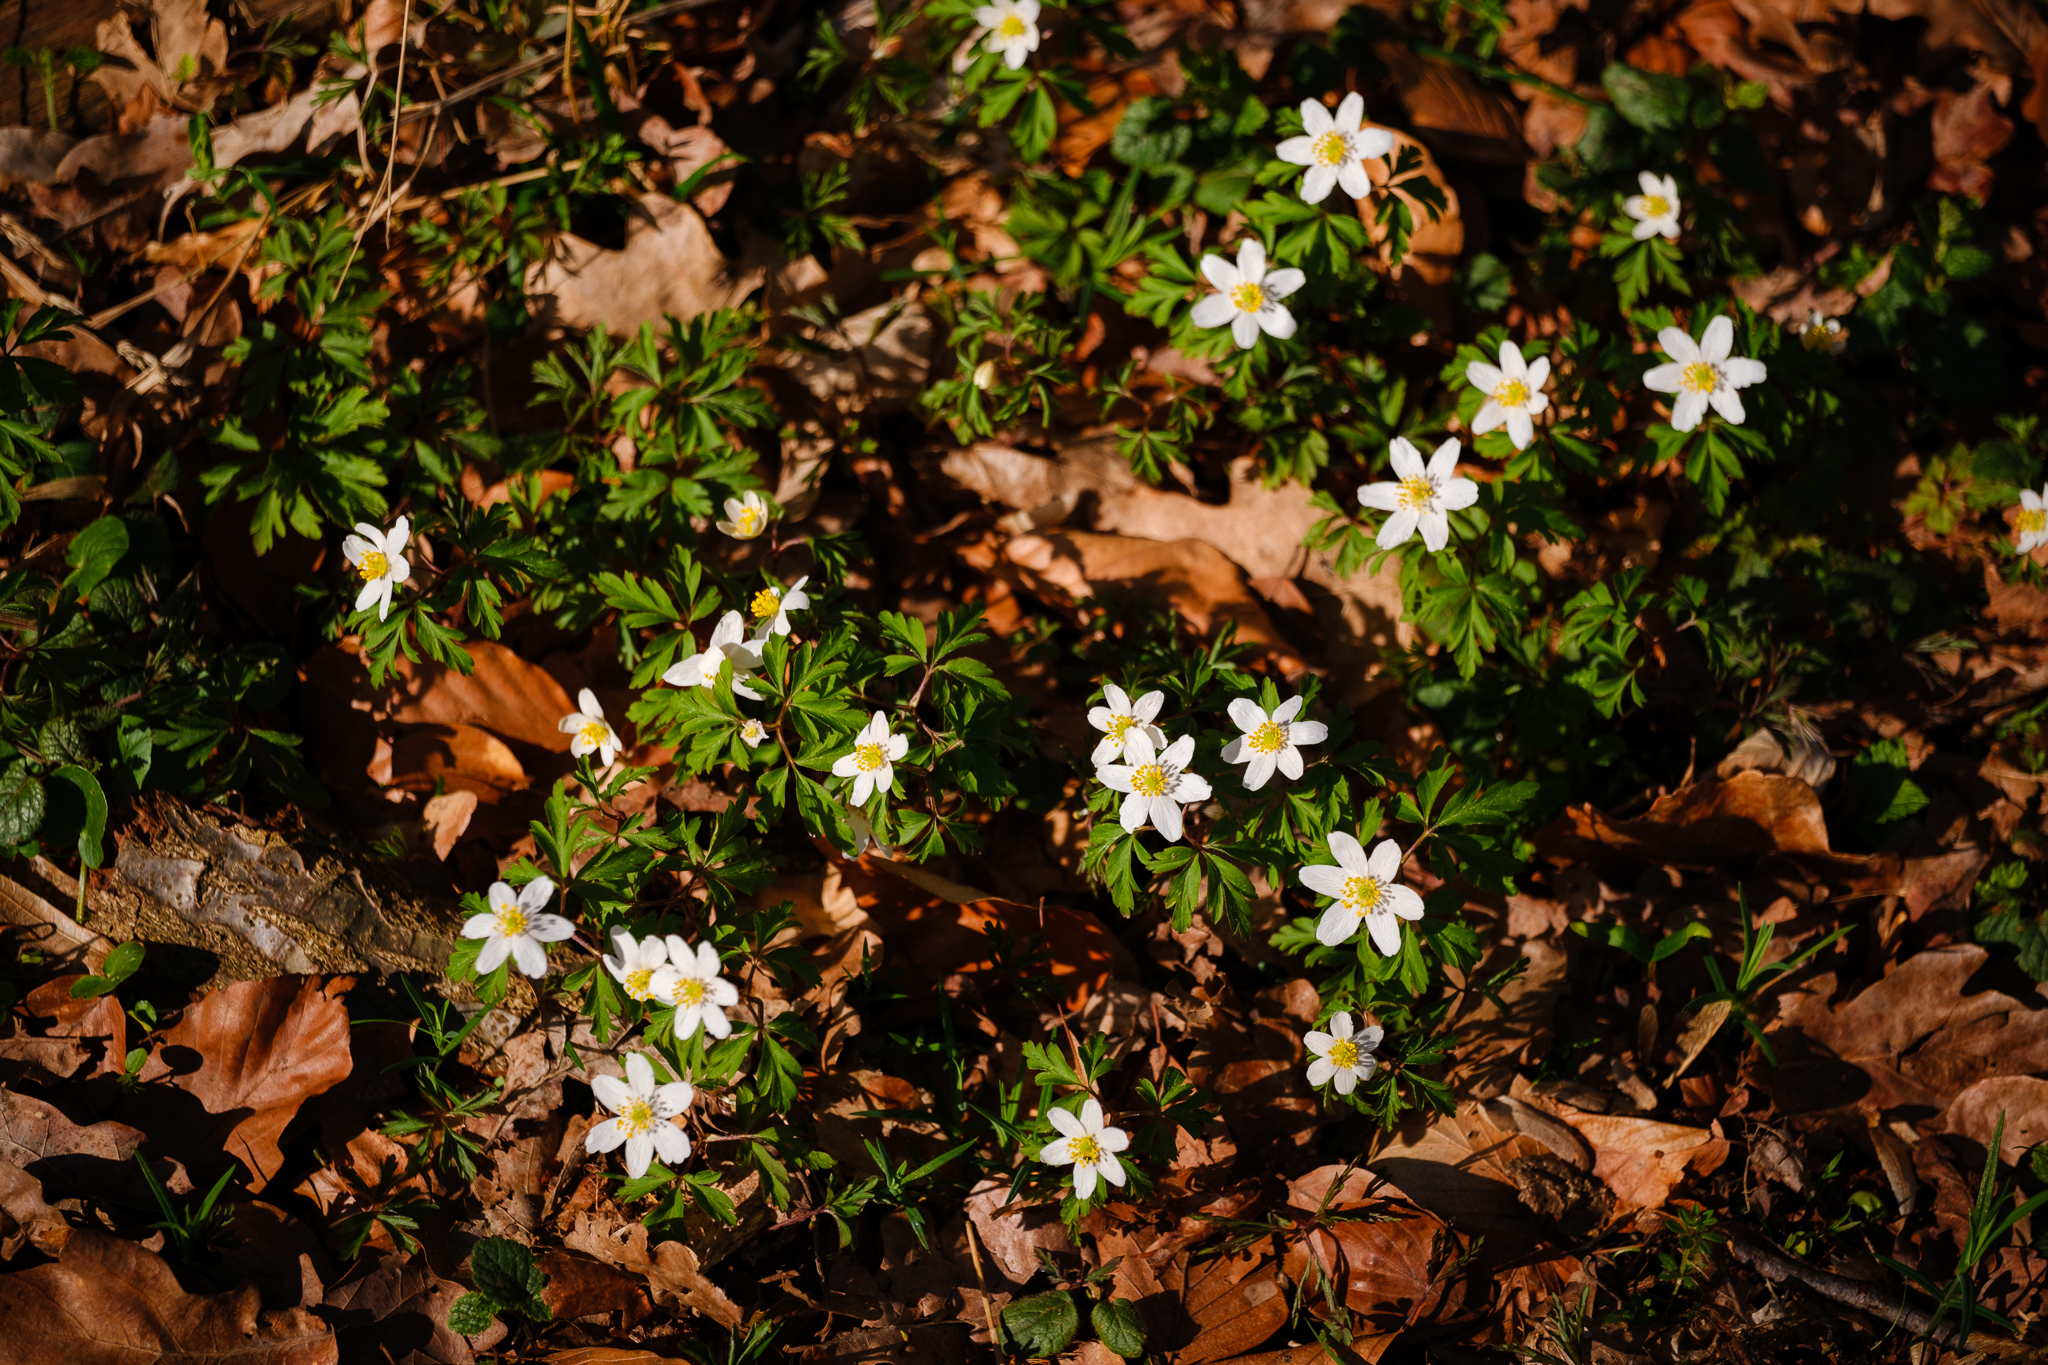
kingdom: Plantae
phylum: Tracheophyta
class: Magnoliopsida
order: Ranunculales
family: Ranunculaceae
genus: Anemone
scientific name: Anemone nemorosa
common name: Wood anemone
